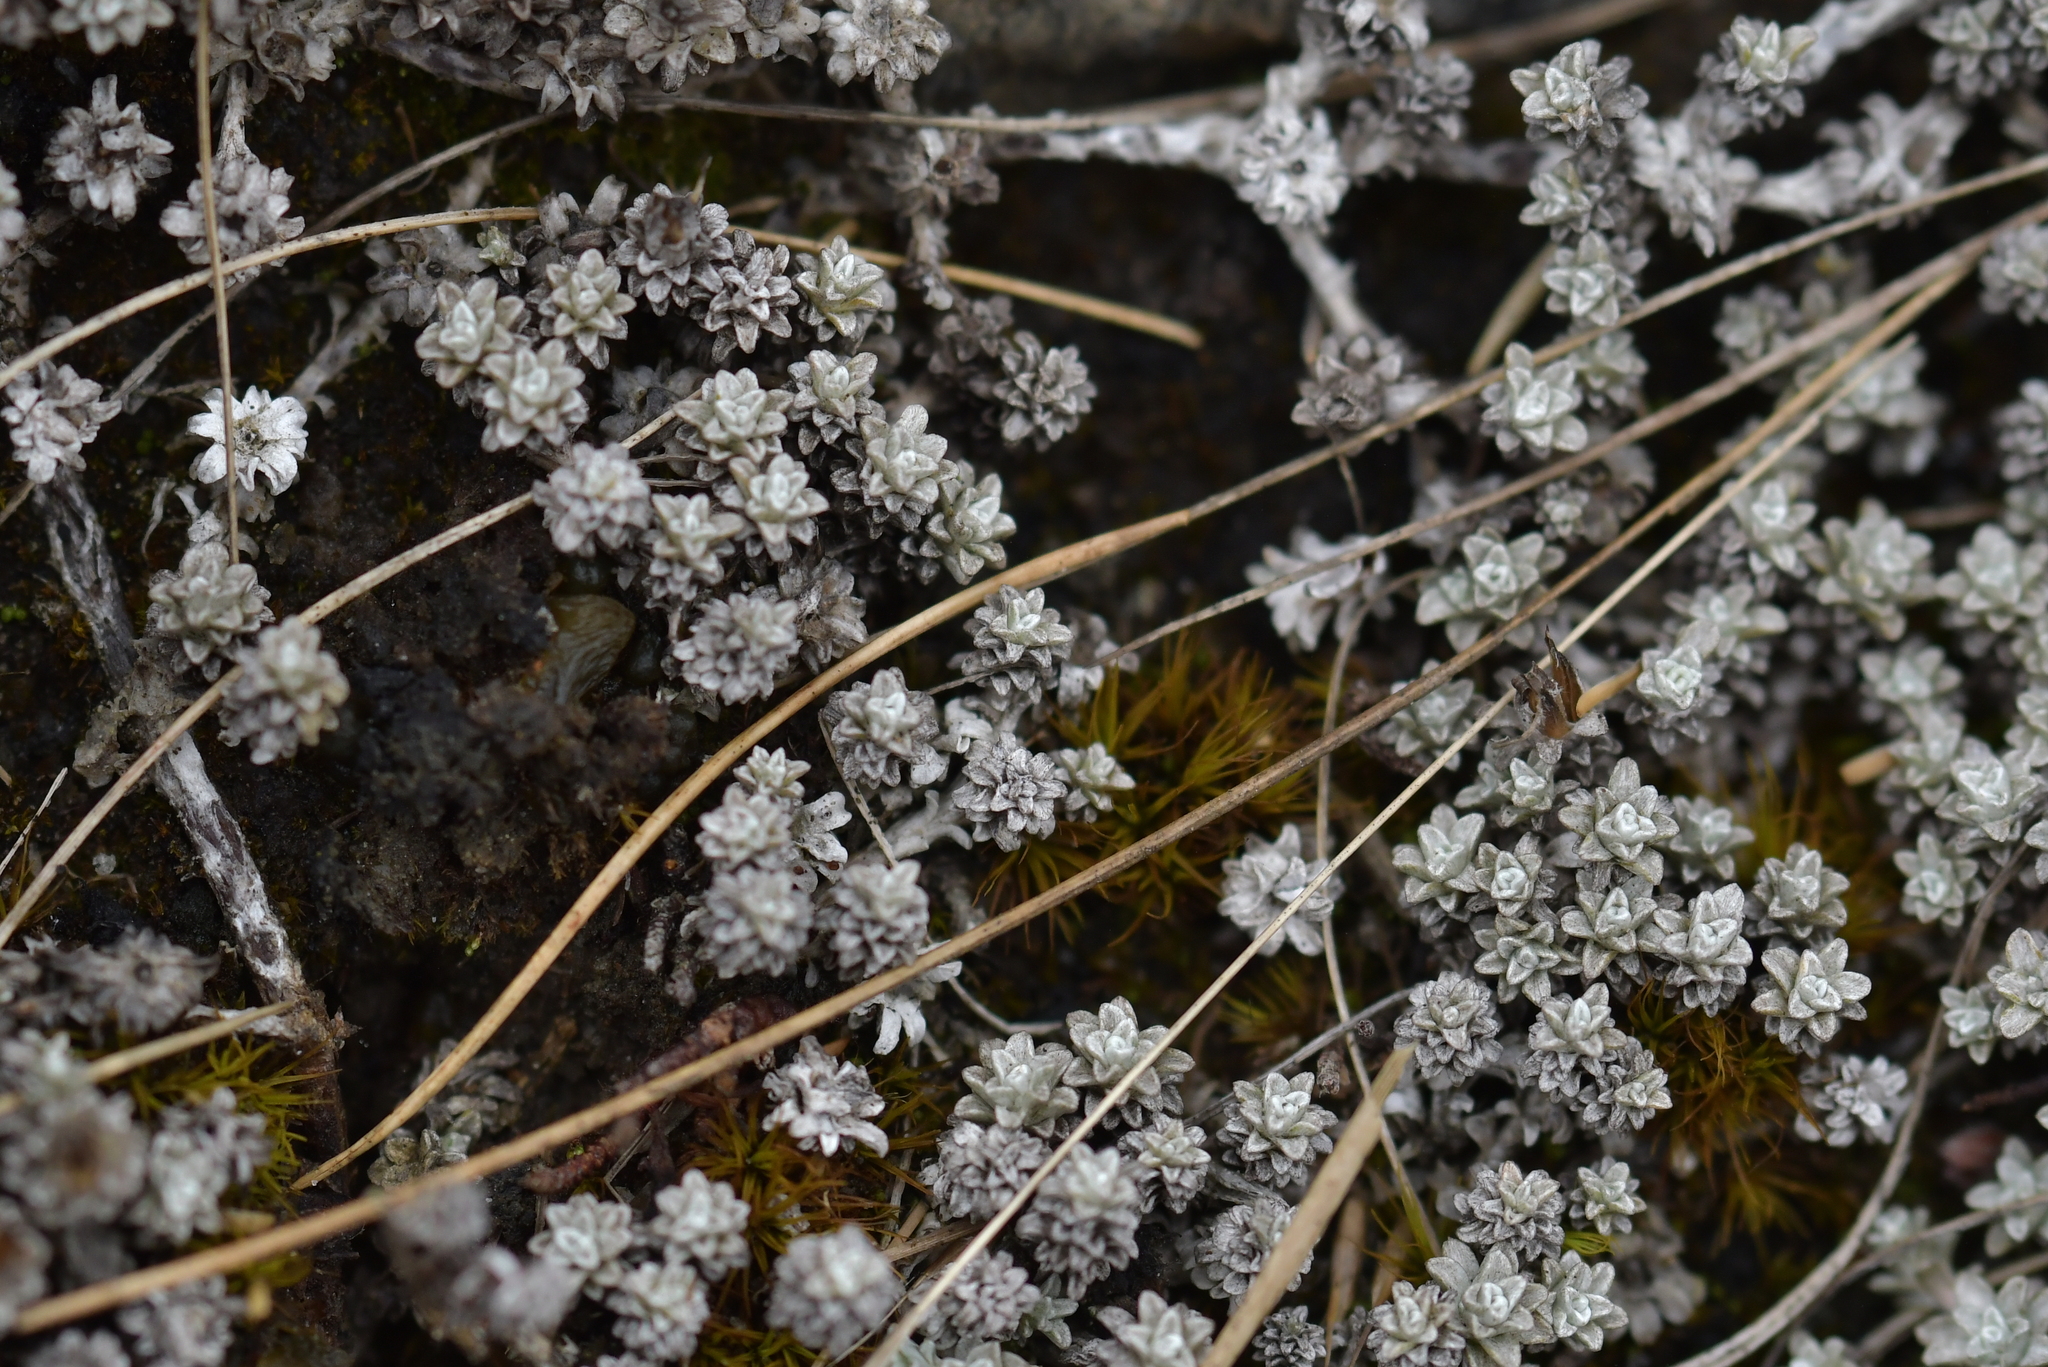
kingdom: Plantae
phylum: Tracheophyta
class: Magnoliopsida
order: Asterales
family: Asteraceae
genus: Leucogenes
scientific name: Leucogenes grandiceps
